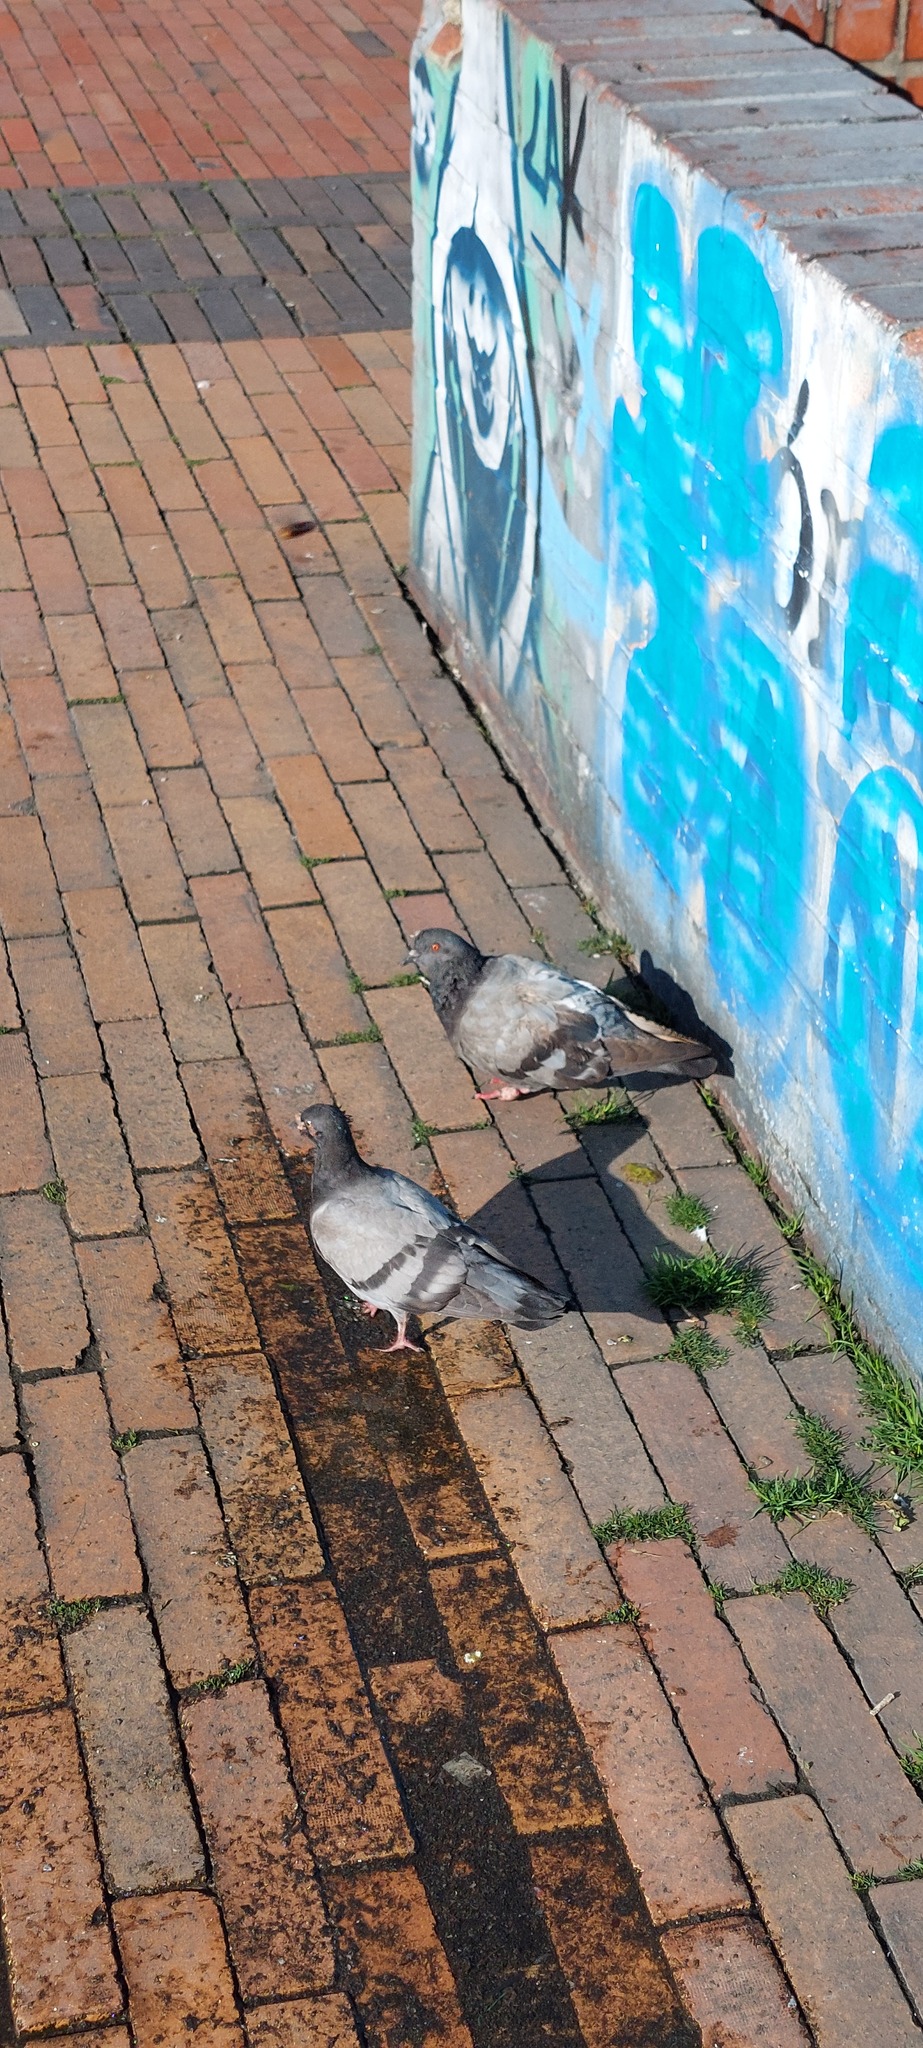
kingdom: Animalia
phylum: Chordata
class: Aves
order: Columbiformes
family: Columbidae
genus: Columba
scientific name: Columba livia
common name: Rock pigeon
